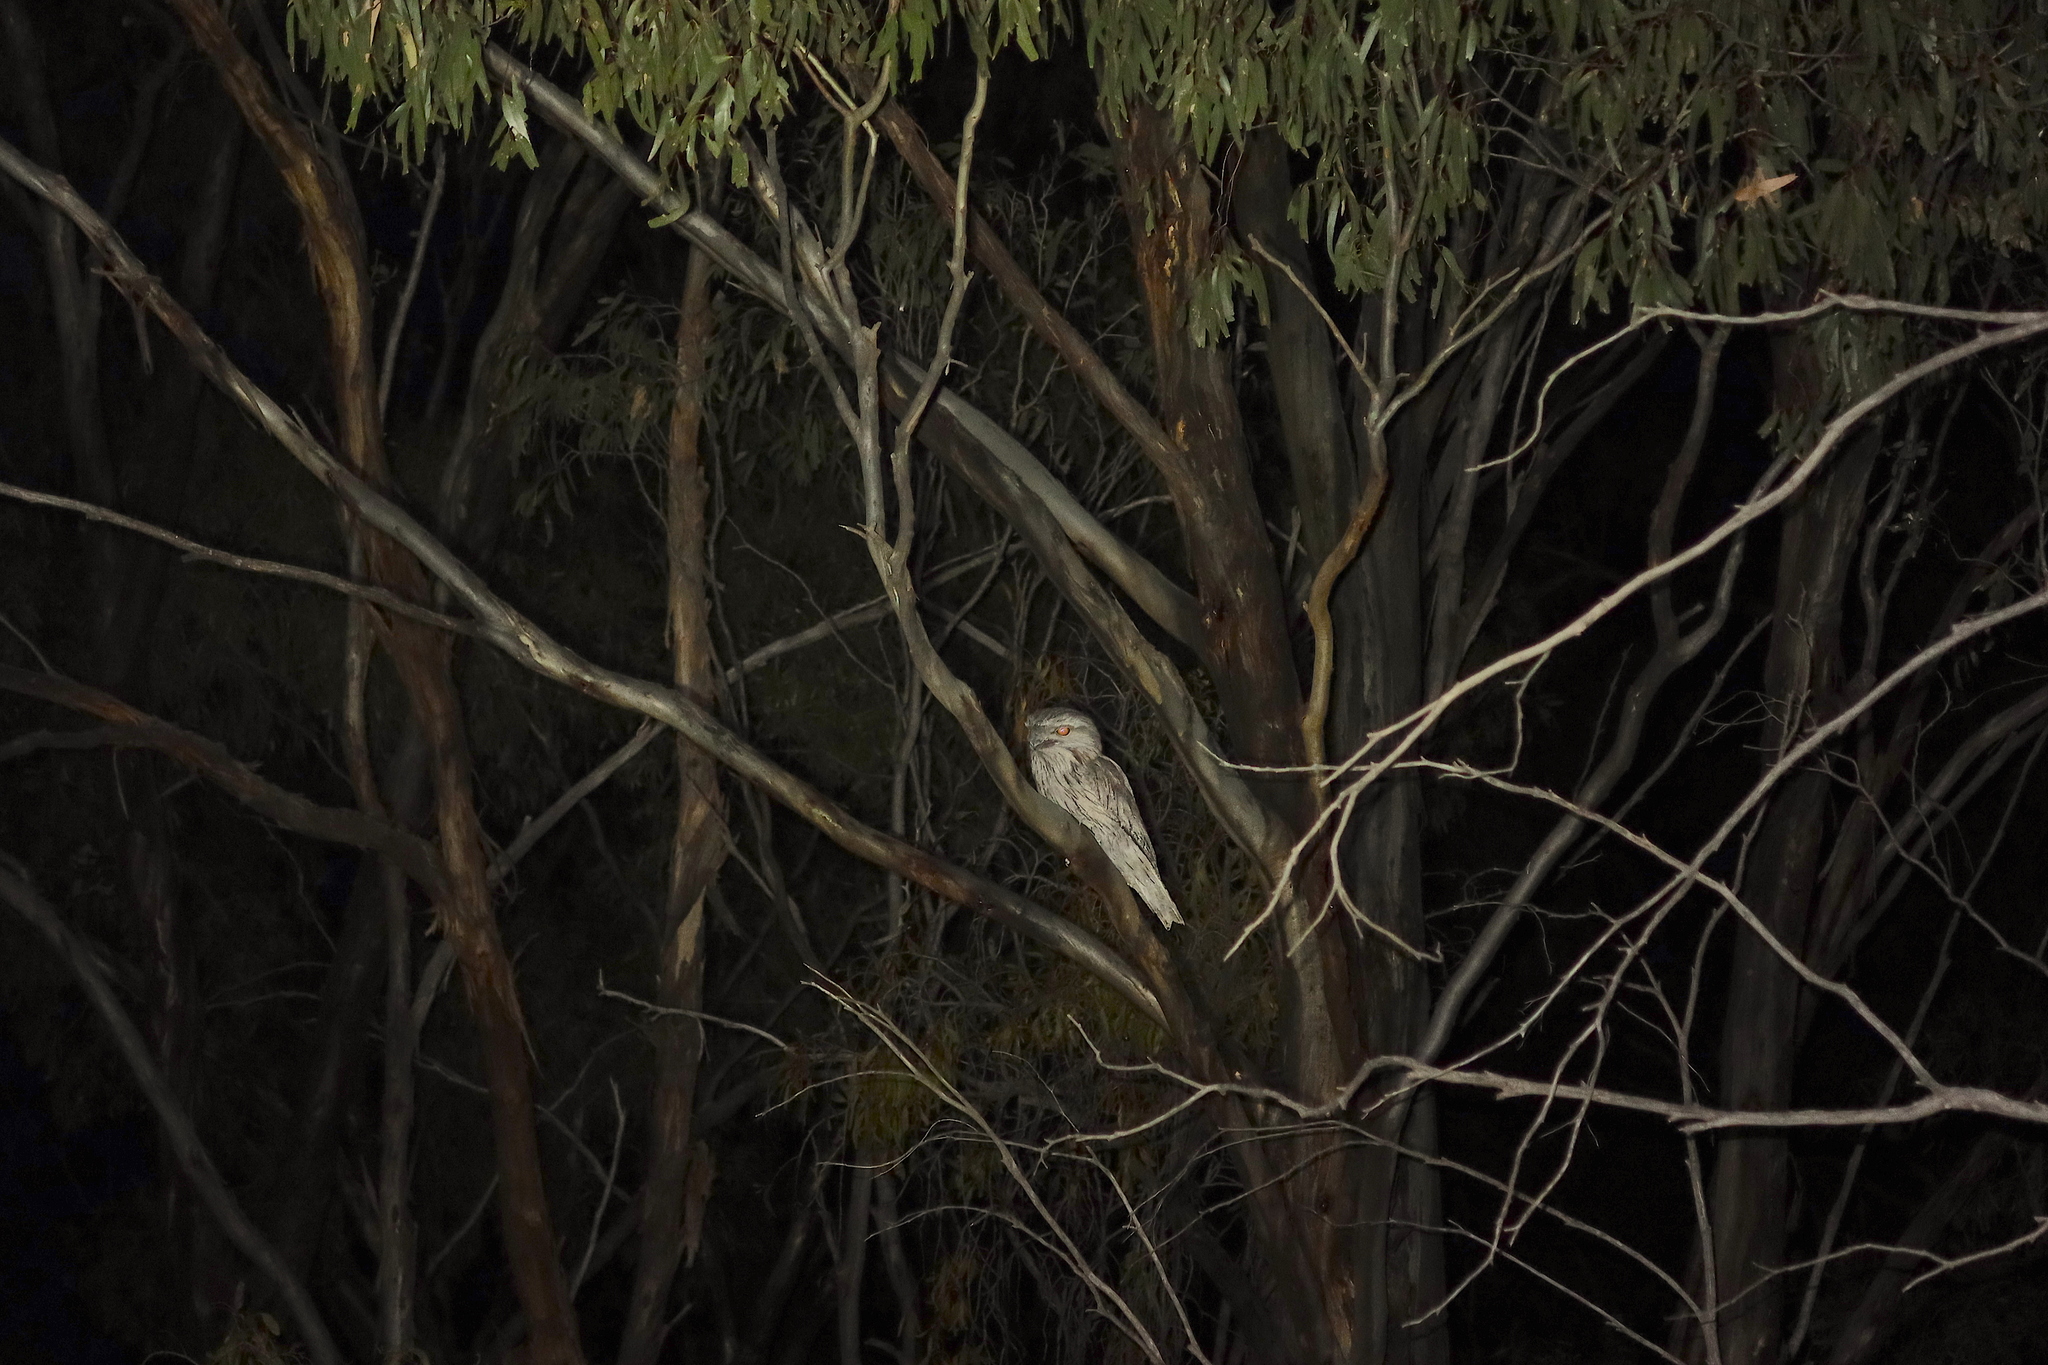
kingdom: Animalia
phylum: Chordata
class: Aves
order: Caprimulgiformes
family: Podargidae
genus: Podargus
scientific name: Podargus strigoides
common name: Tawny frogmouth
